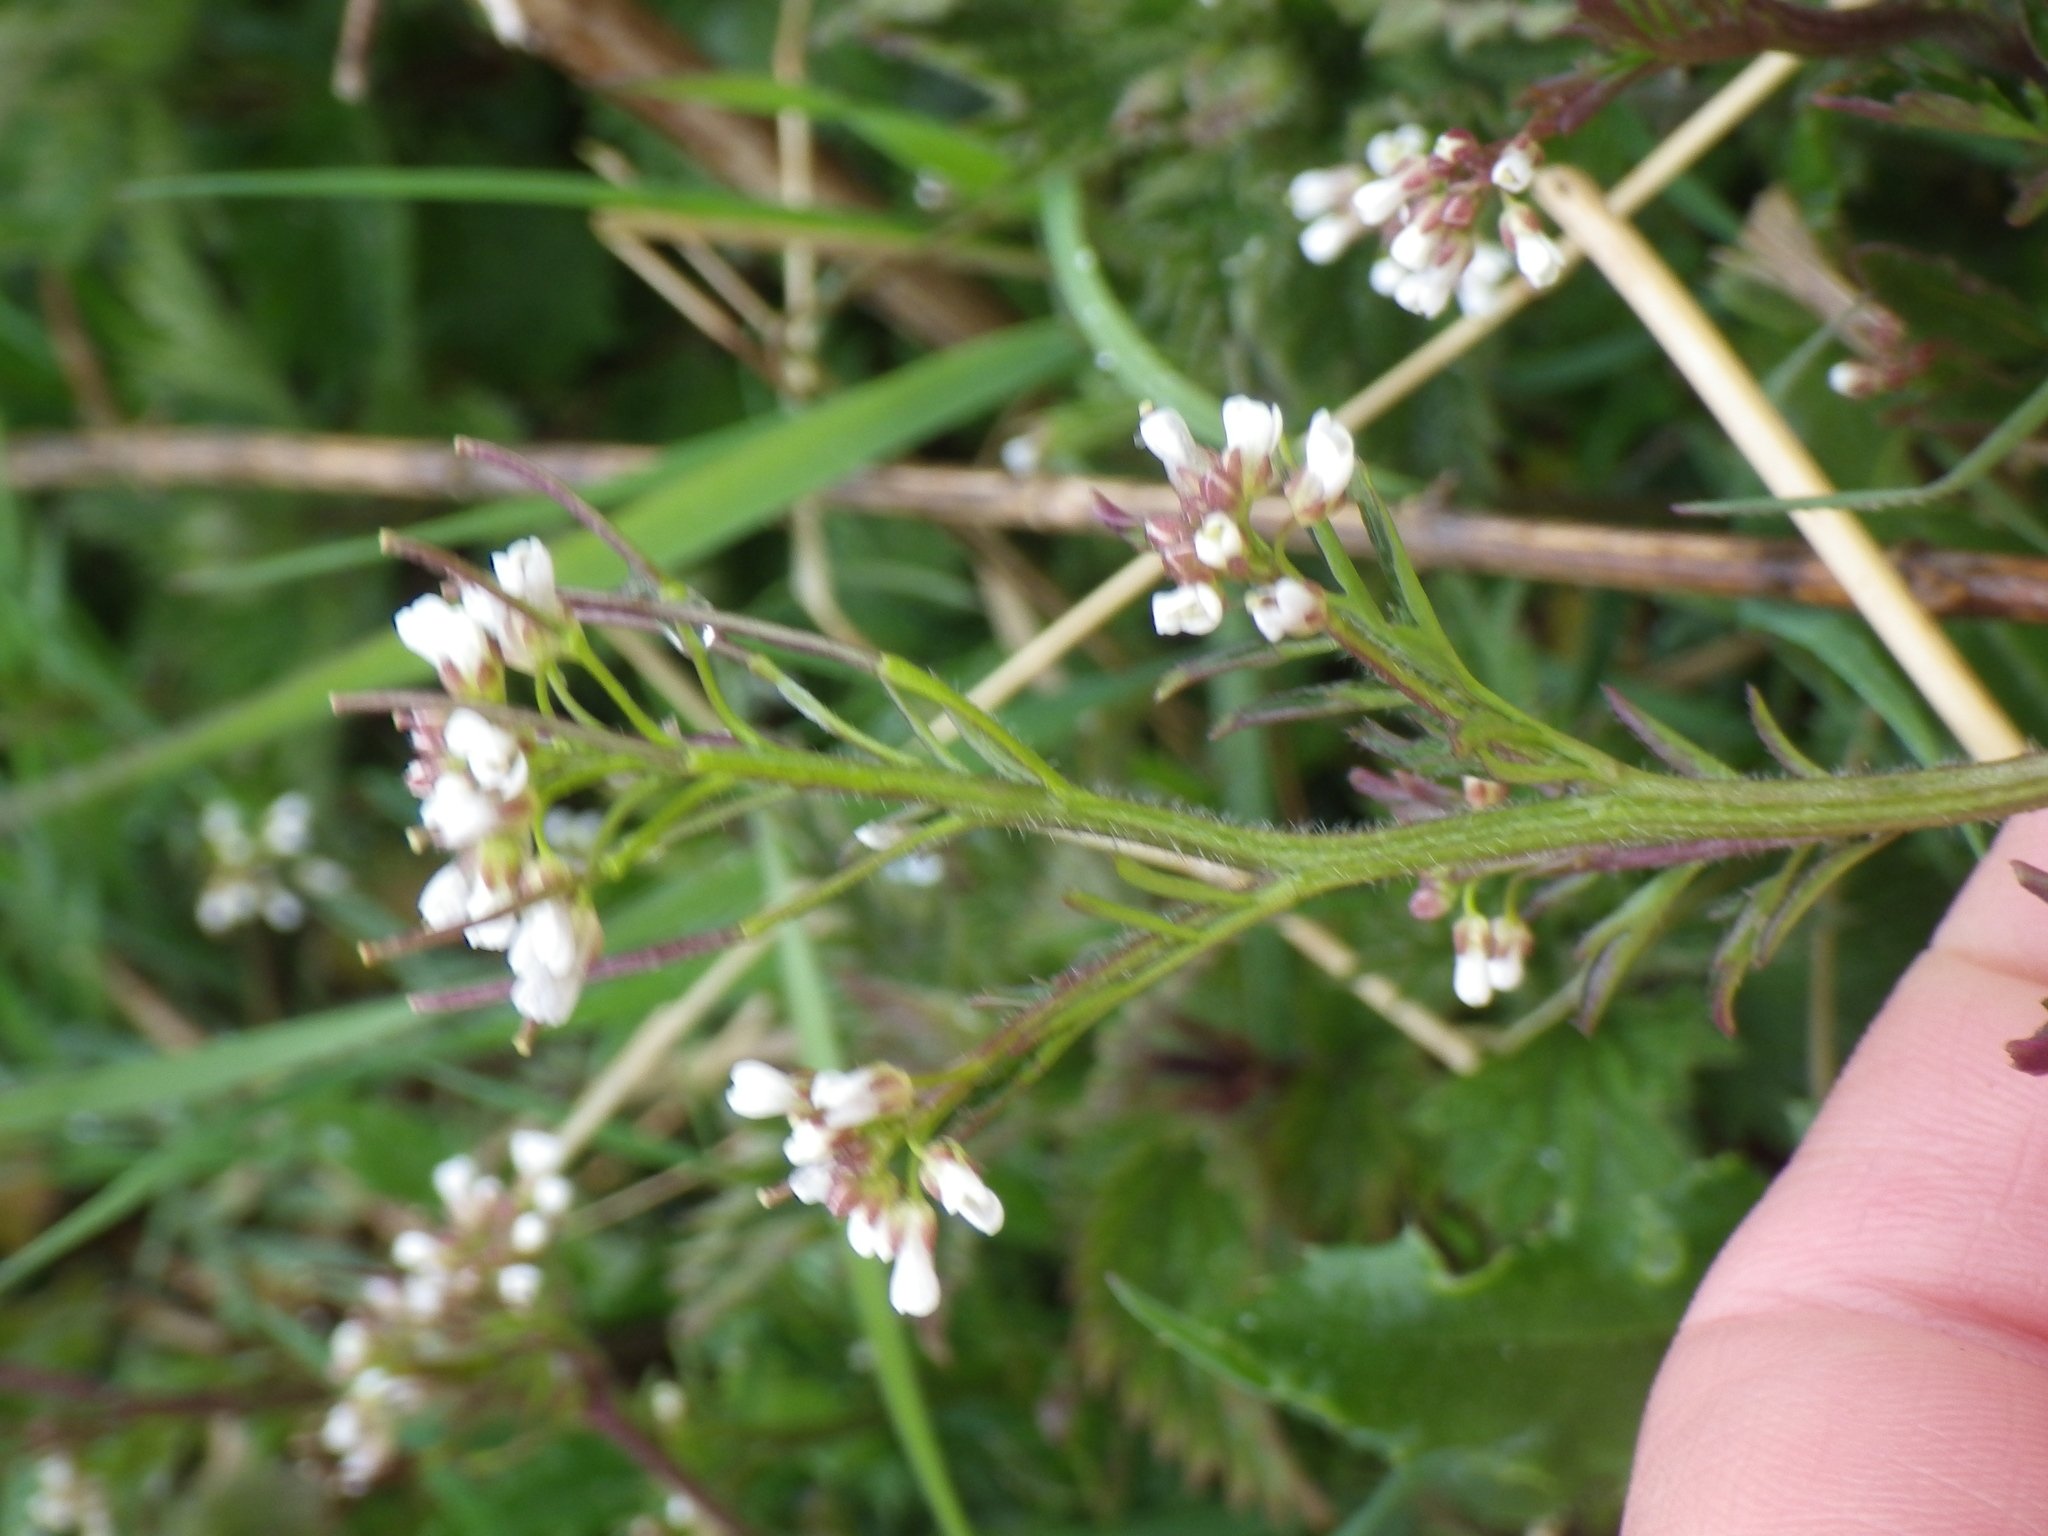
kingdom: Plantae
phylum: Tracheophyta
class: Magnoliopsida
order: Brassicales
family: Brassicaceae
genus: Cardamine
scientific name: Cardamine flexuosa
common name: Woodland bittercress
